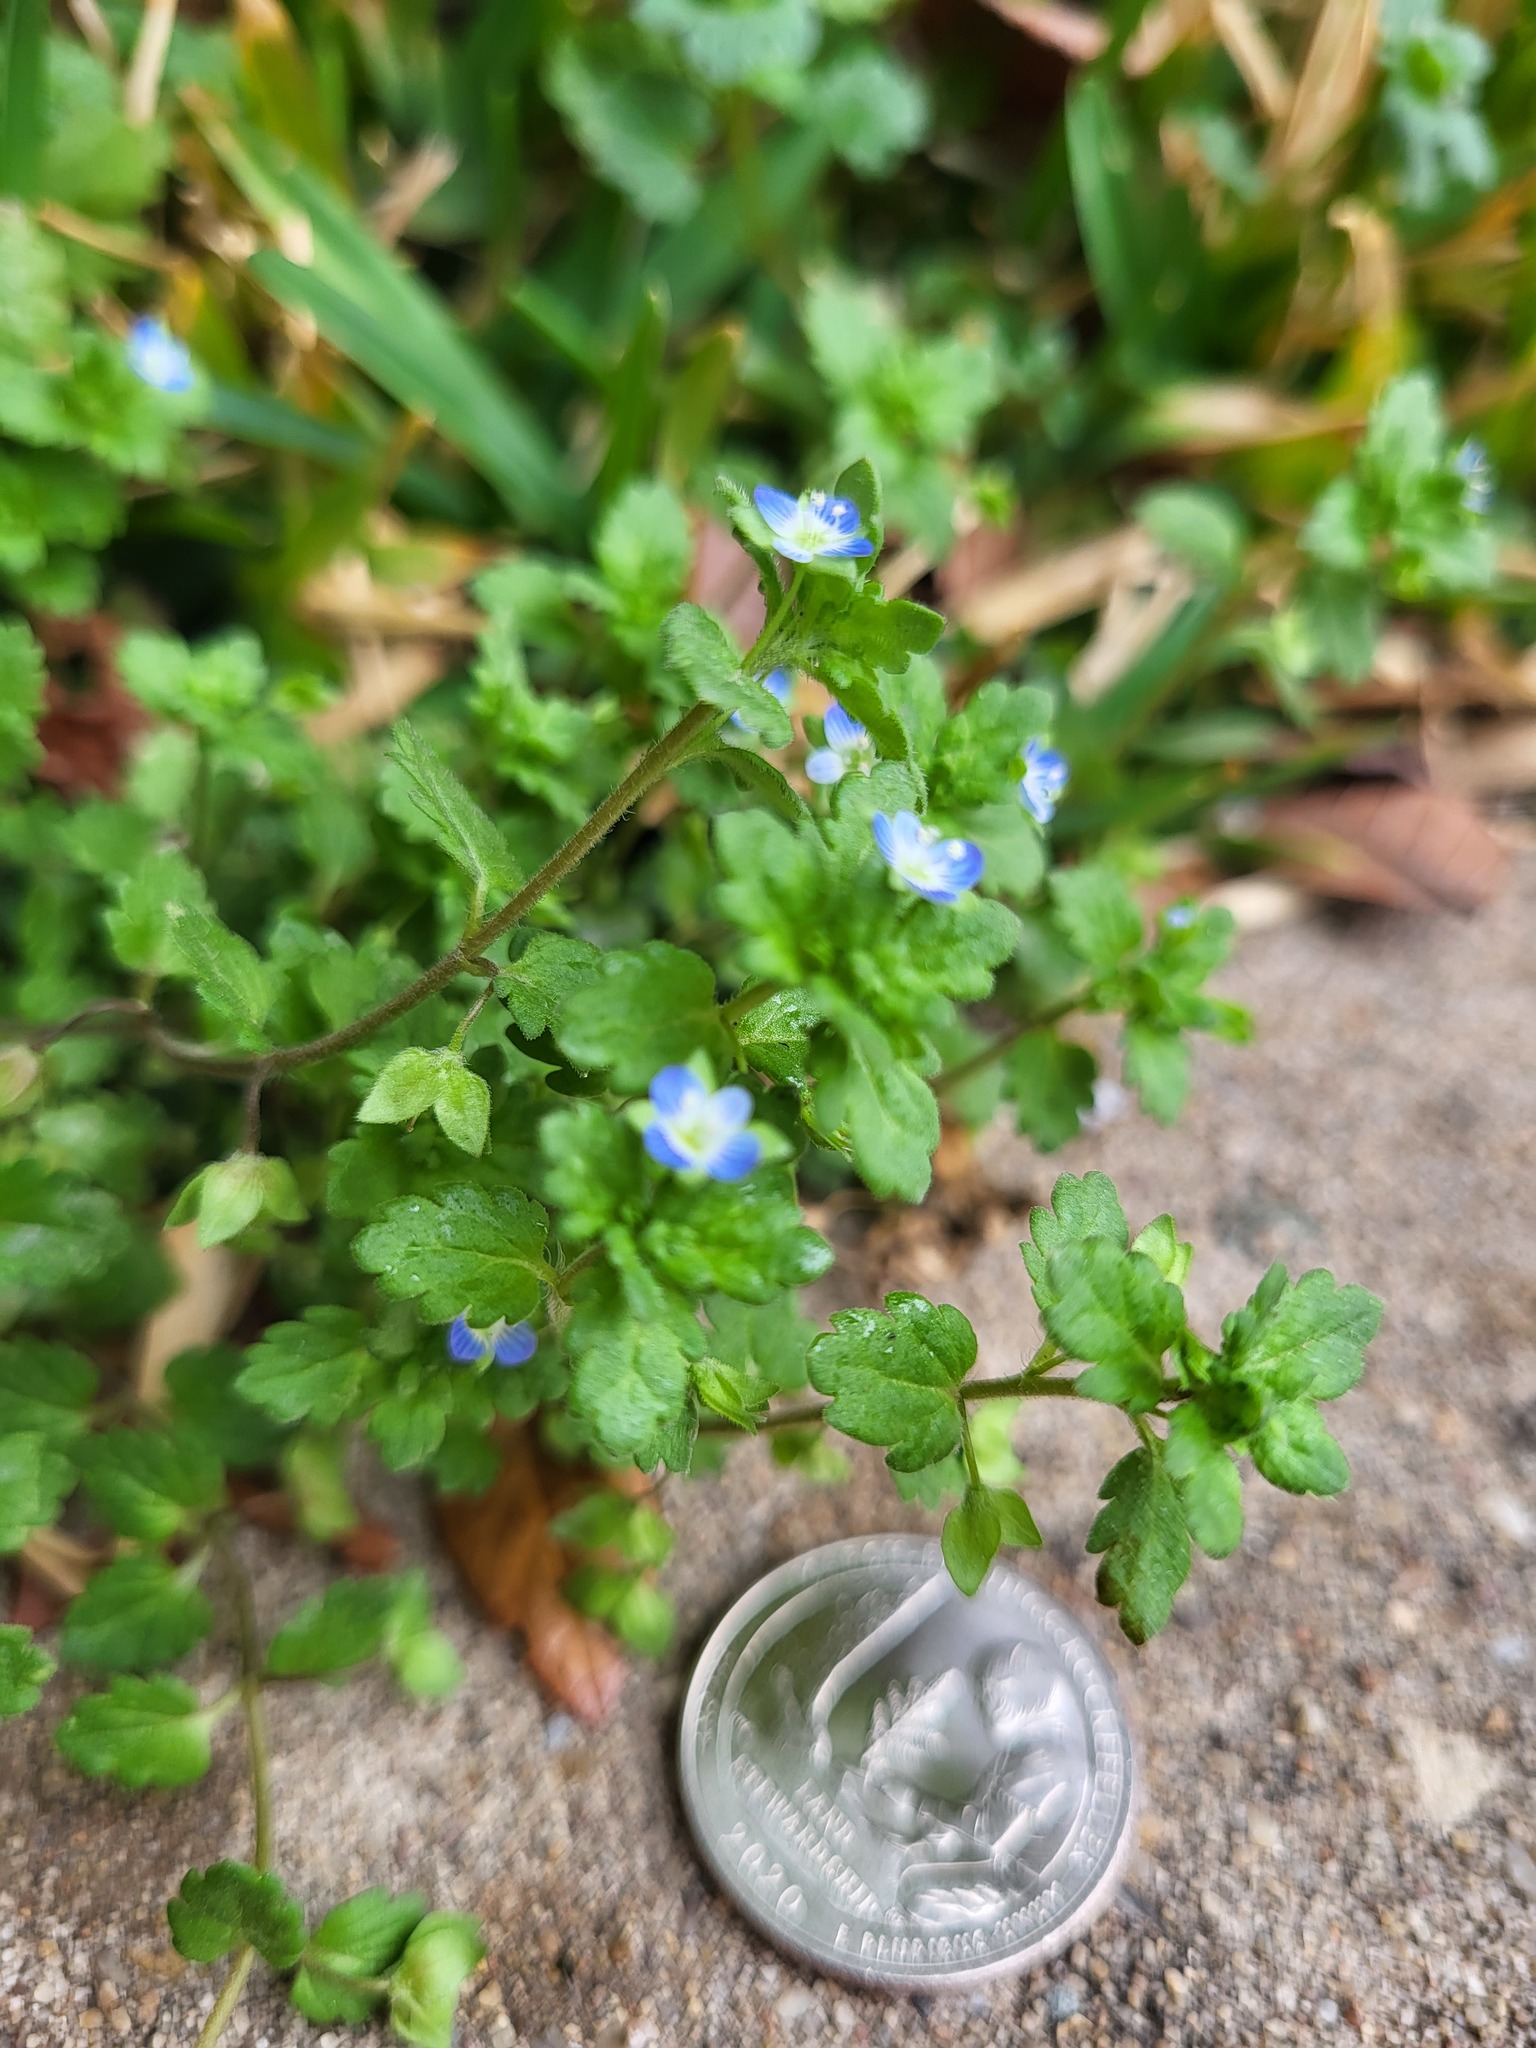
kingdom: Plantae
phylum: Tracheophyta
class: Magnoliopsida
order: Lamiales
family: Plantaginaceae
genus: Veronica
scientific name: Veronica polita
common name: Grey field-speedwell
